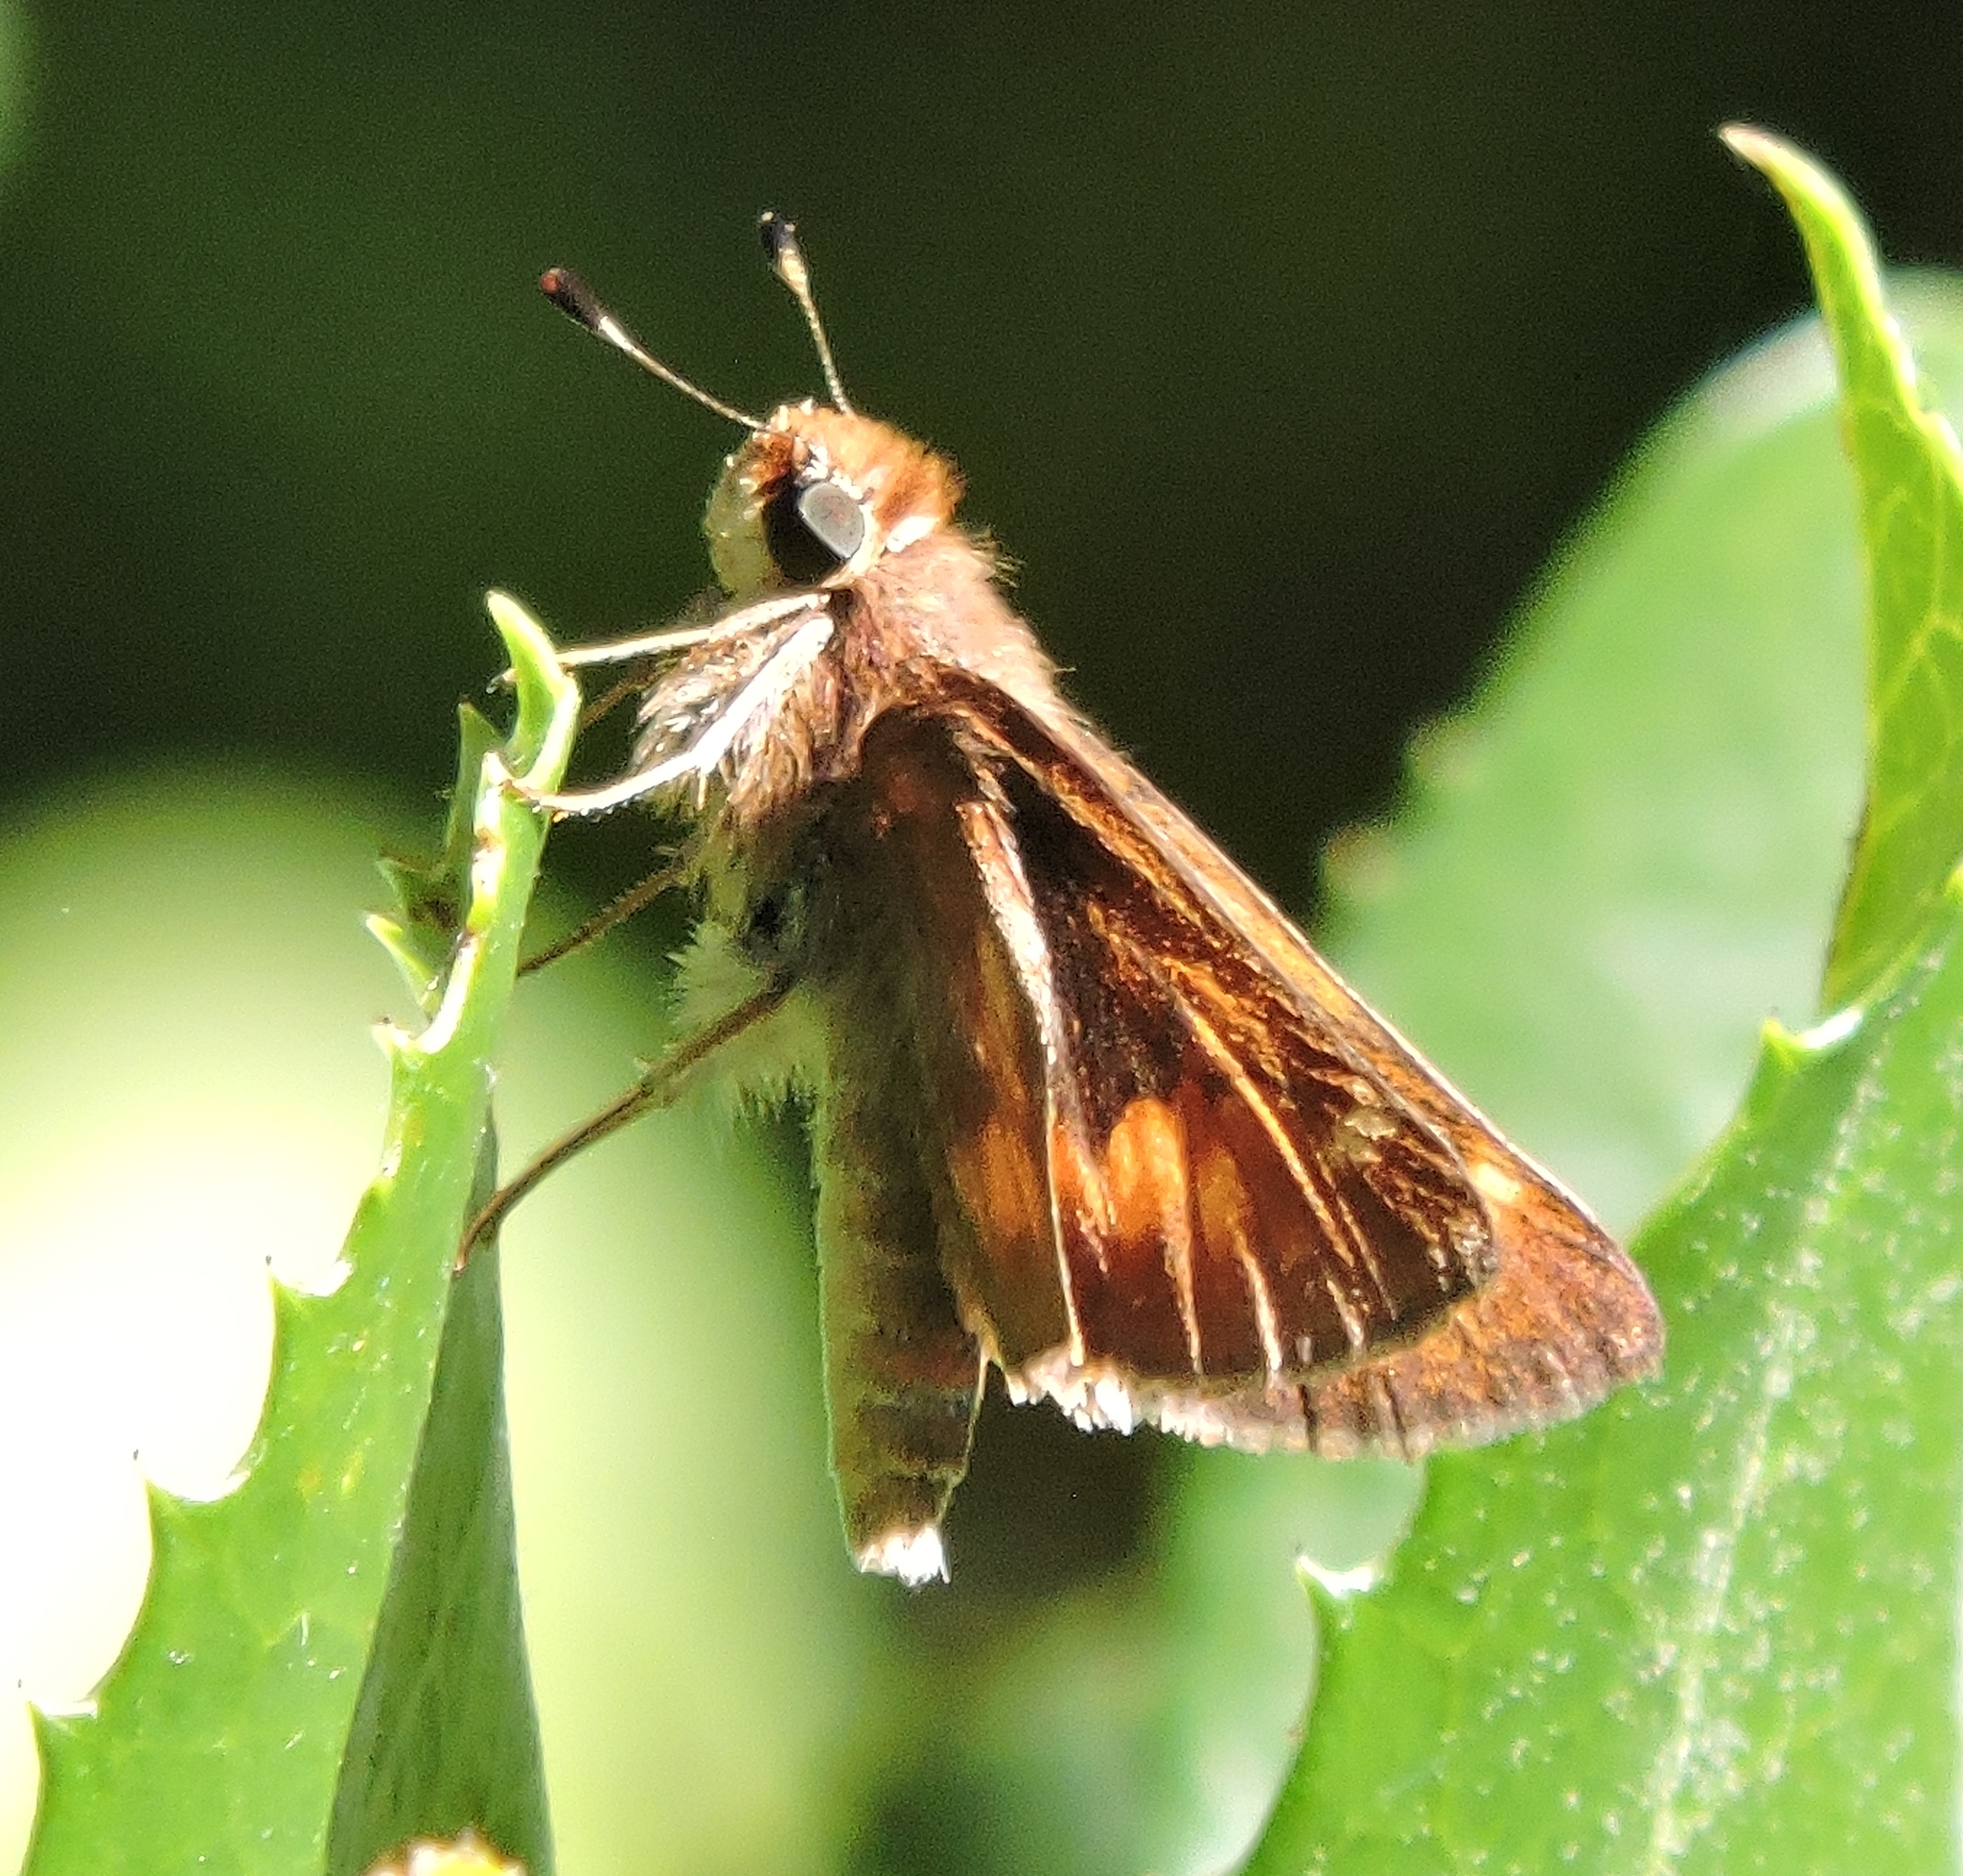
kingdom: Animalia
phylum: Arthropoda
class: Insecta
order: Lepidoptera
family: Hesperiidae
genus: Lon
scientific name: Lon melane
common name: Umber skipper
